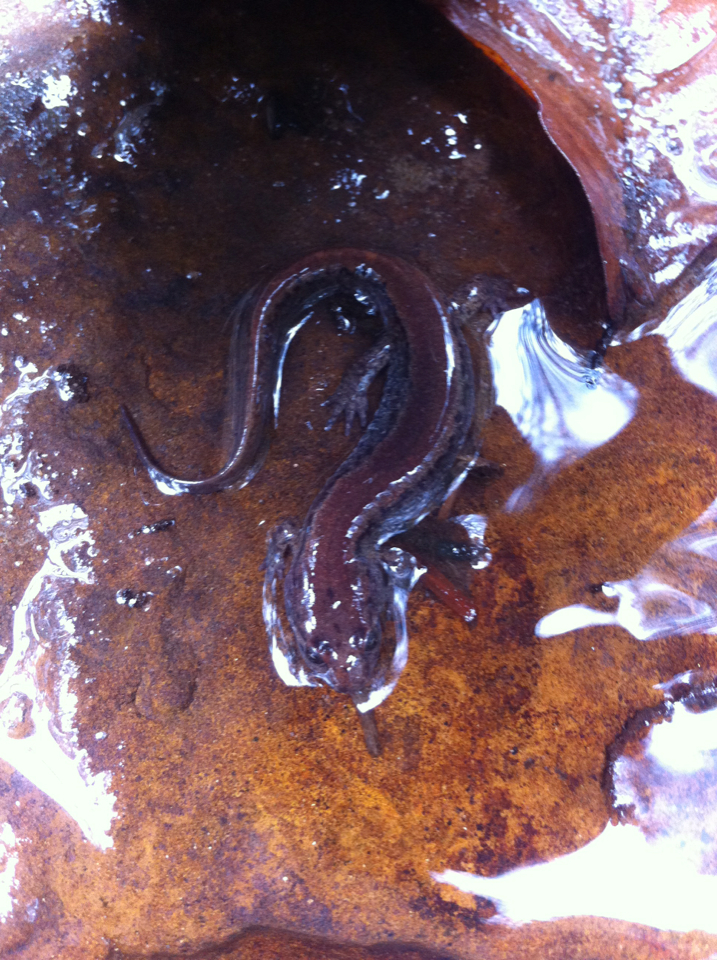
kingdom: Animalia
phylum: Chordata
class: Amphibia
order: Caudata
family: Plethodontidae
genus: Desmognathus
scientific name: Desmognathus fuscus
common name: Northern dusky salamander
